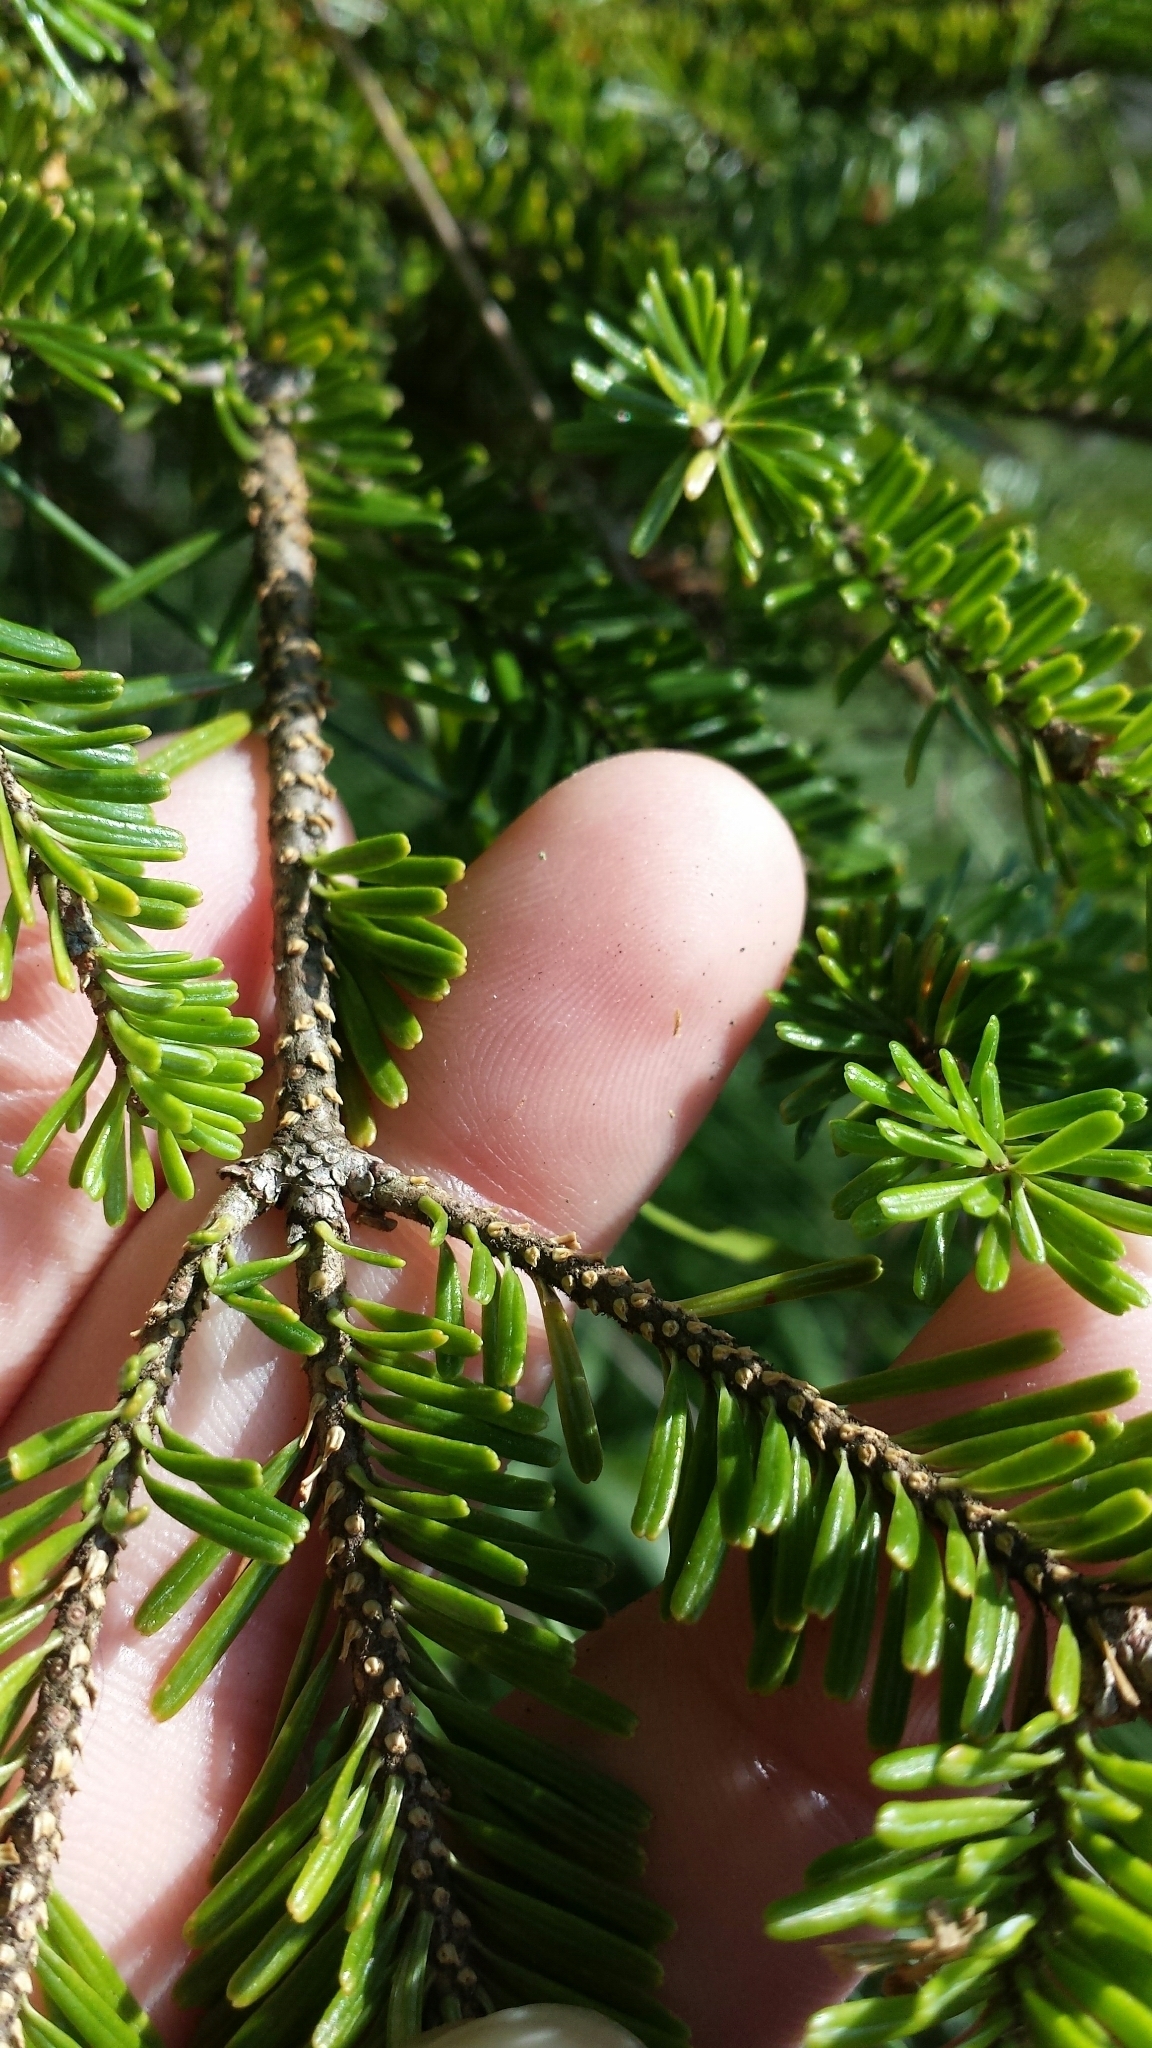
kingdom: Plantae
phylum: Tracheophyta
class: Pinopsida
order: Pinales
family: Pinaceae
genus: Abies
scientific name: Abies balsamea
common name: Balsam fir
